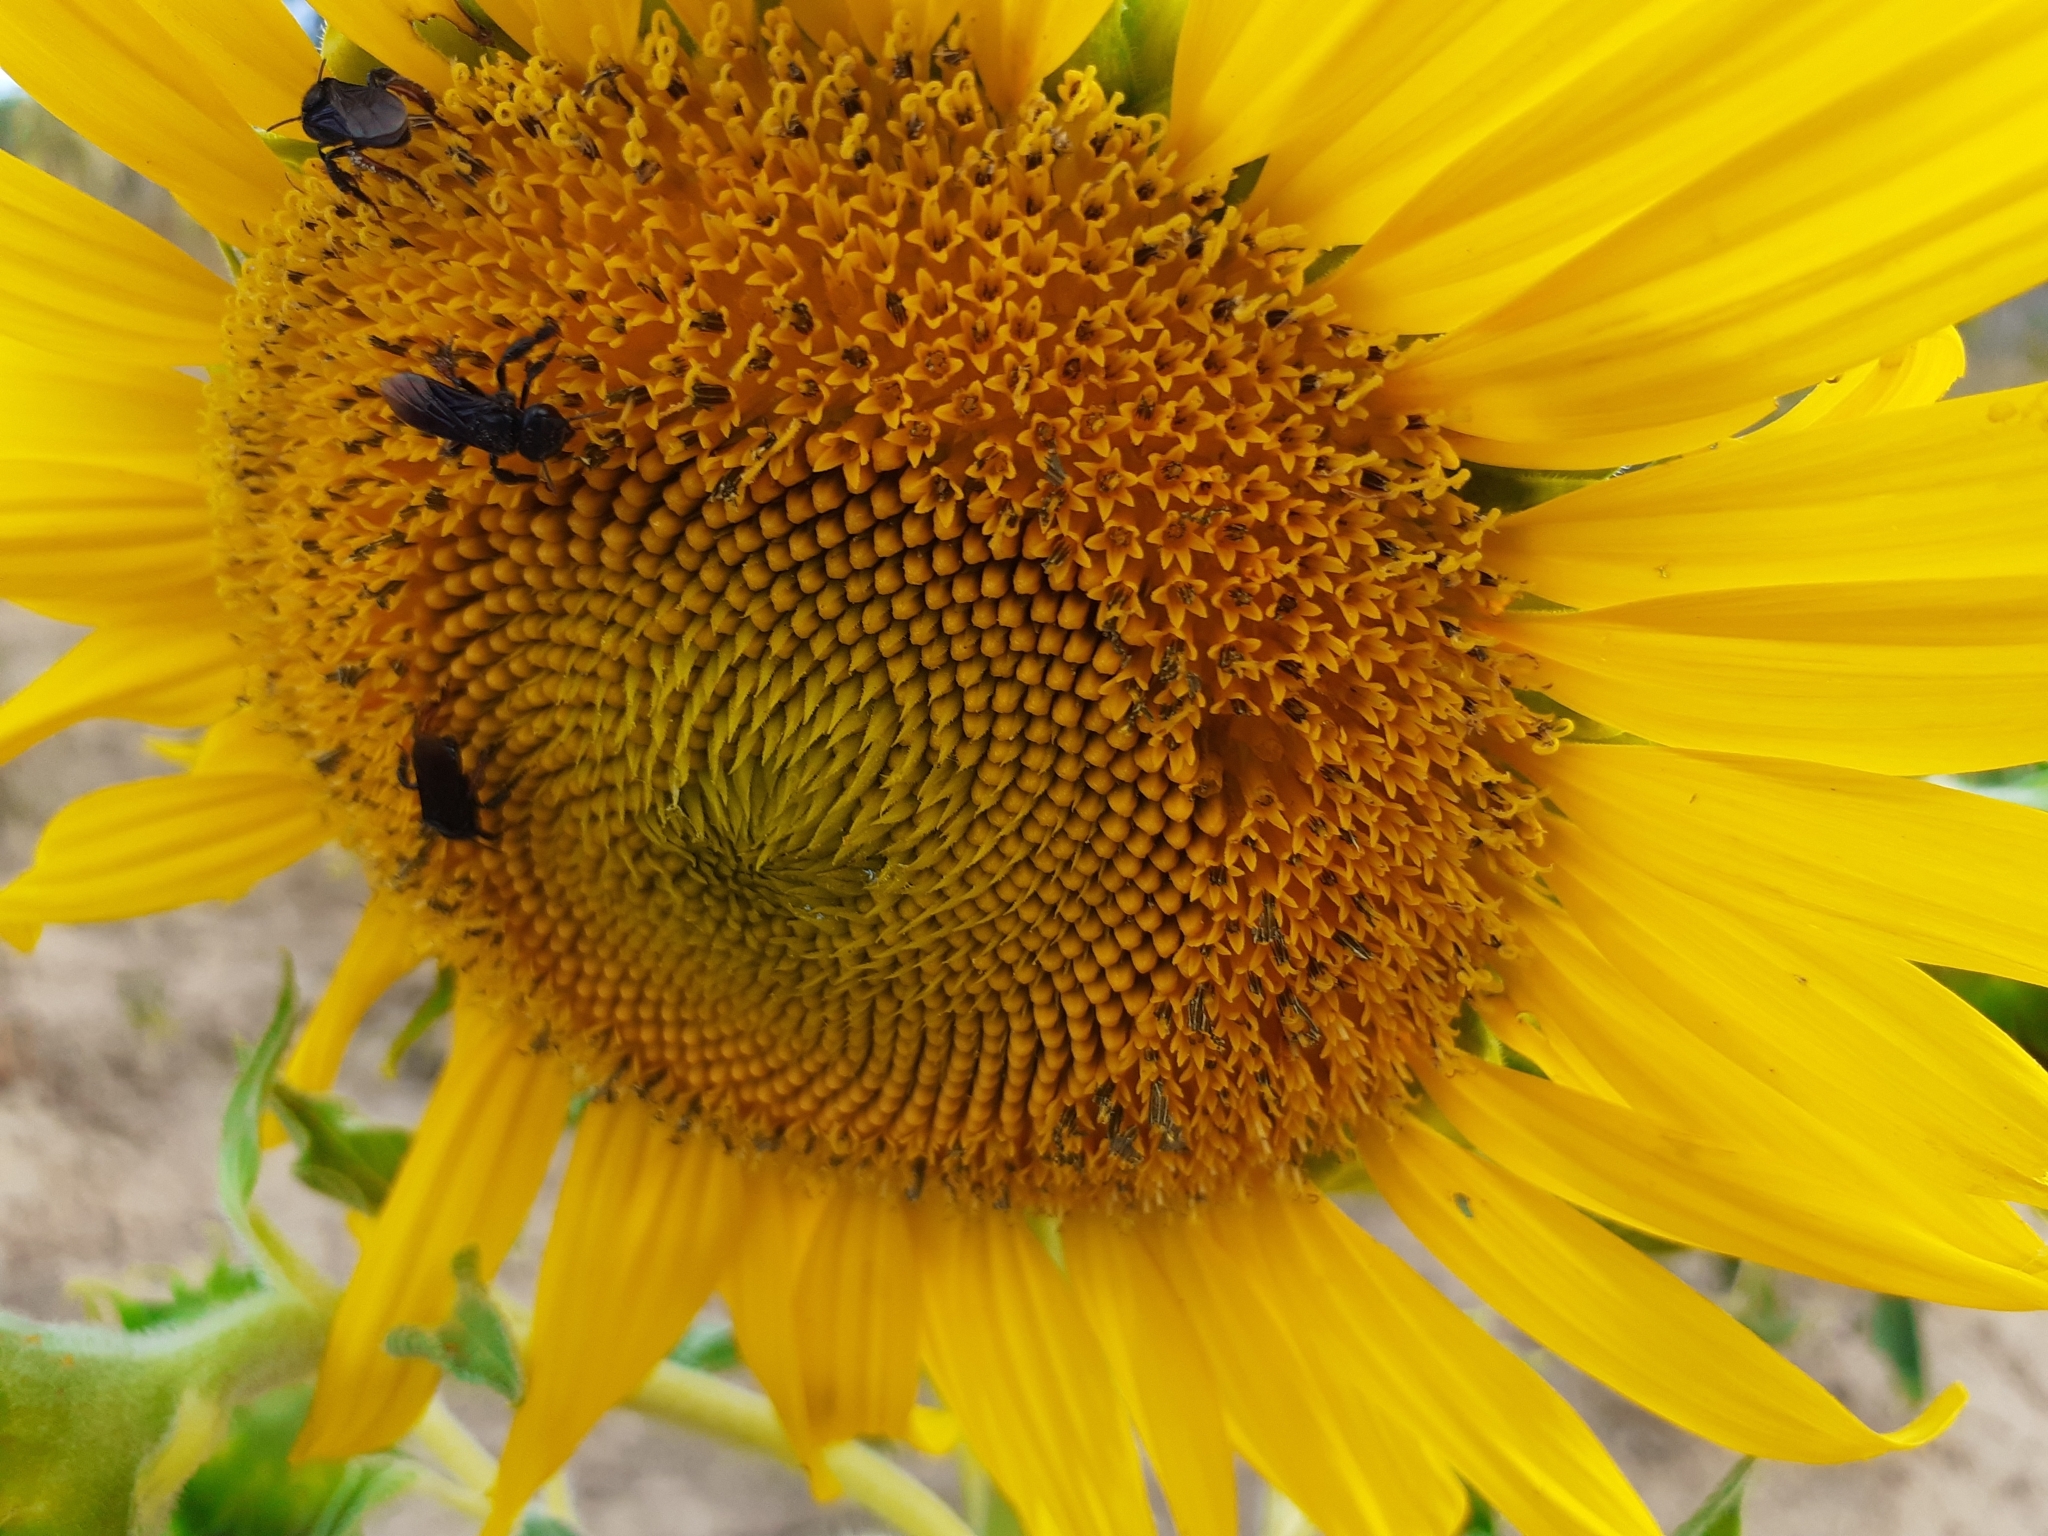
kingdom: Animalia
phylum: Arthropoda
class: Insecta
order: Hymenoptera
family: Apidae
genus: Trigona
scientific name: Trigona spinipes
